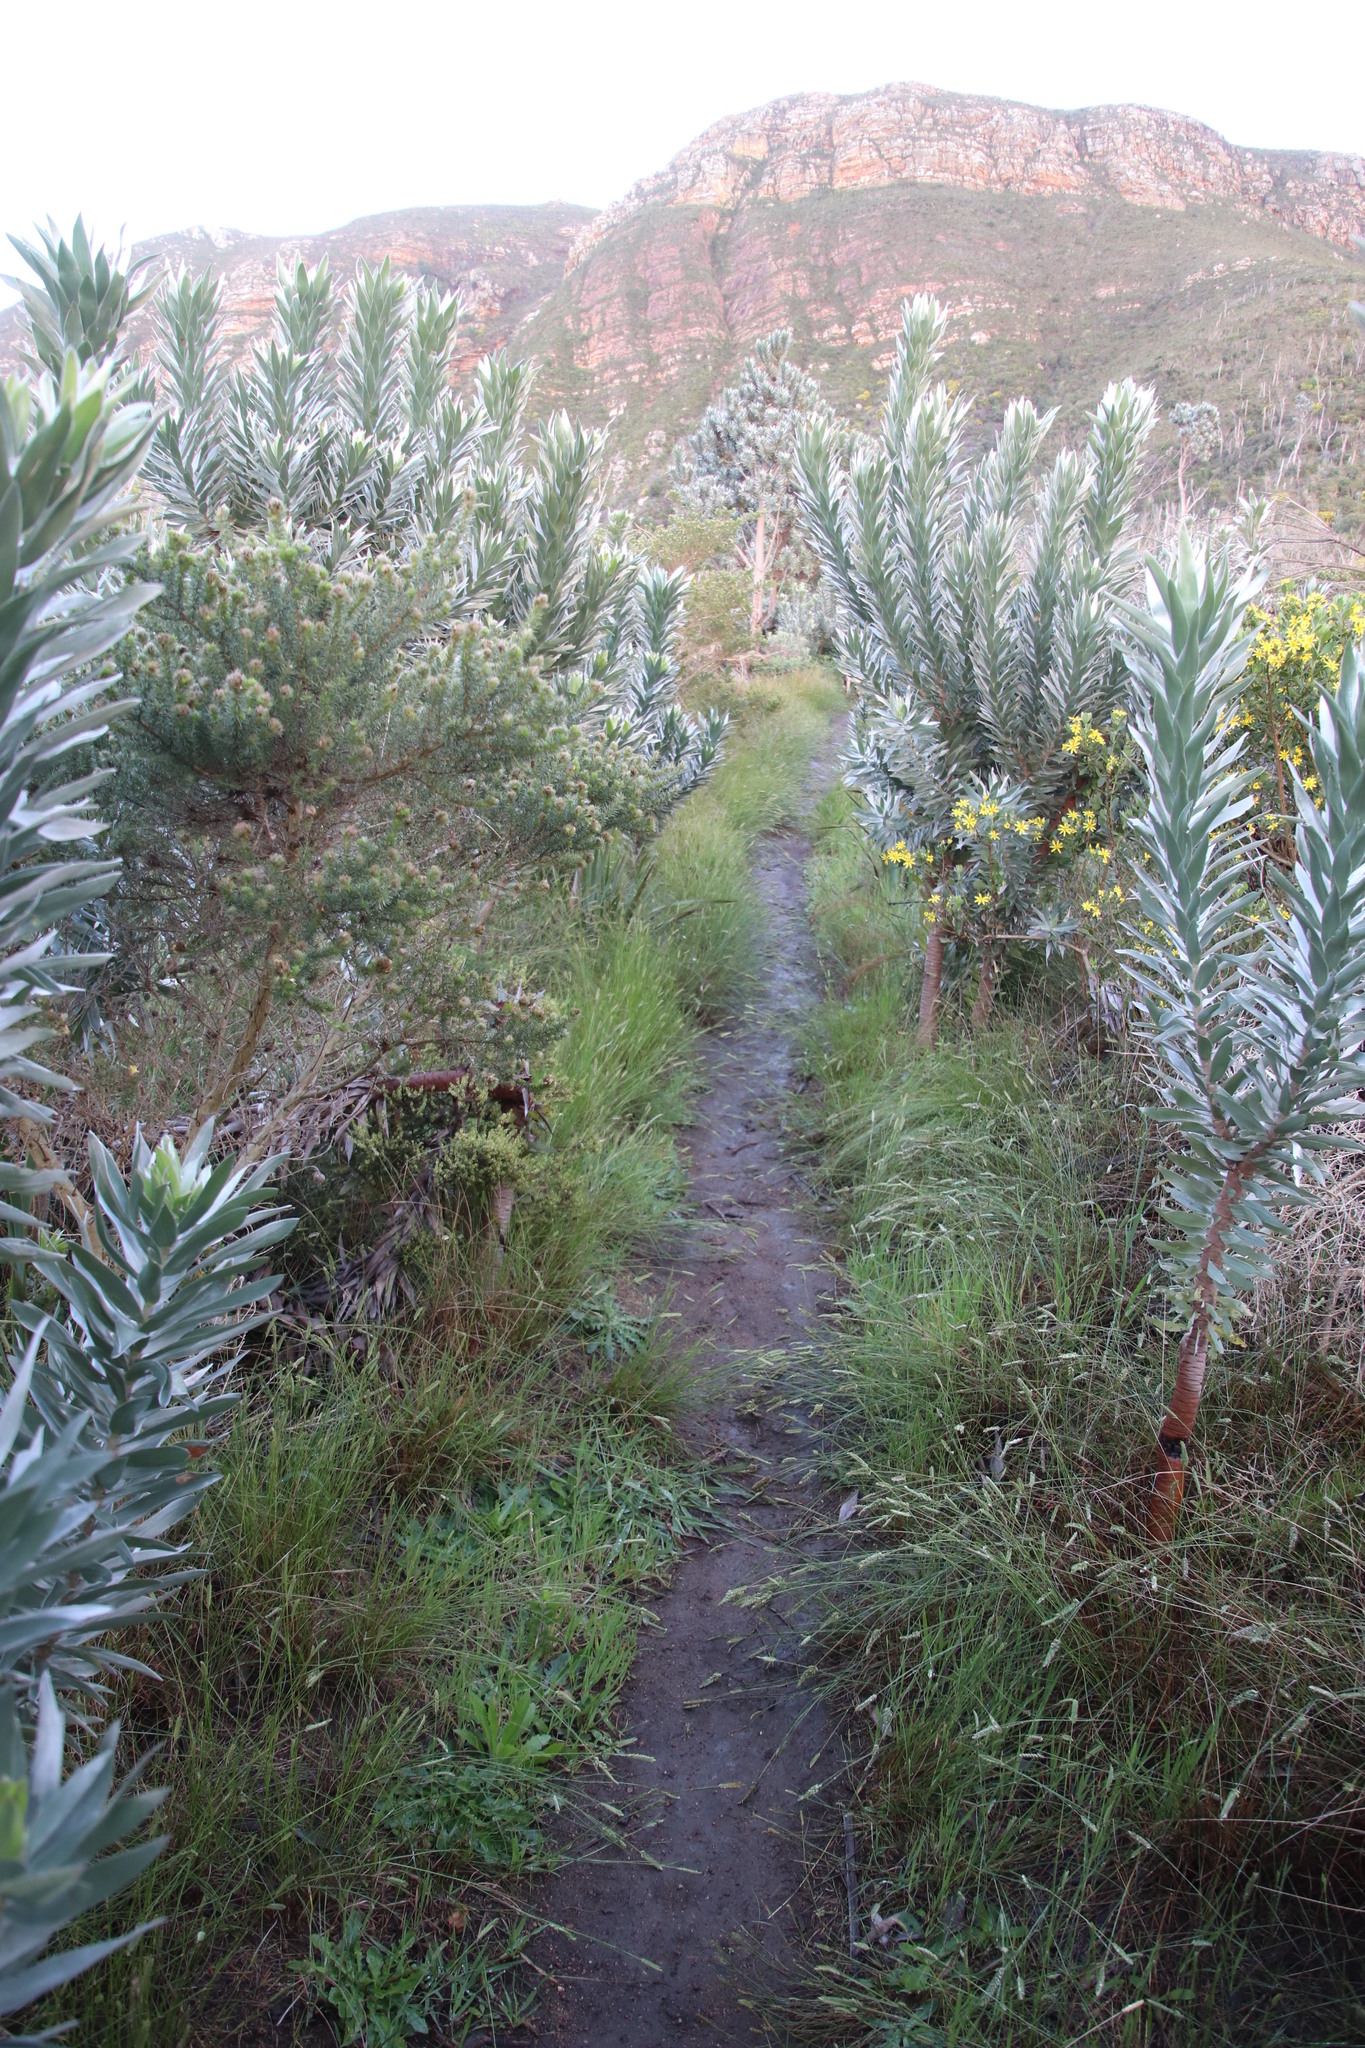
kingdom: Plantae
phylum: Tracheophyta
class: Liliopsida
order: Poales
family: Poaceae
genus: Tribolium
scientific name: Tribolium uniolae
